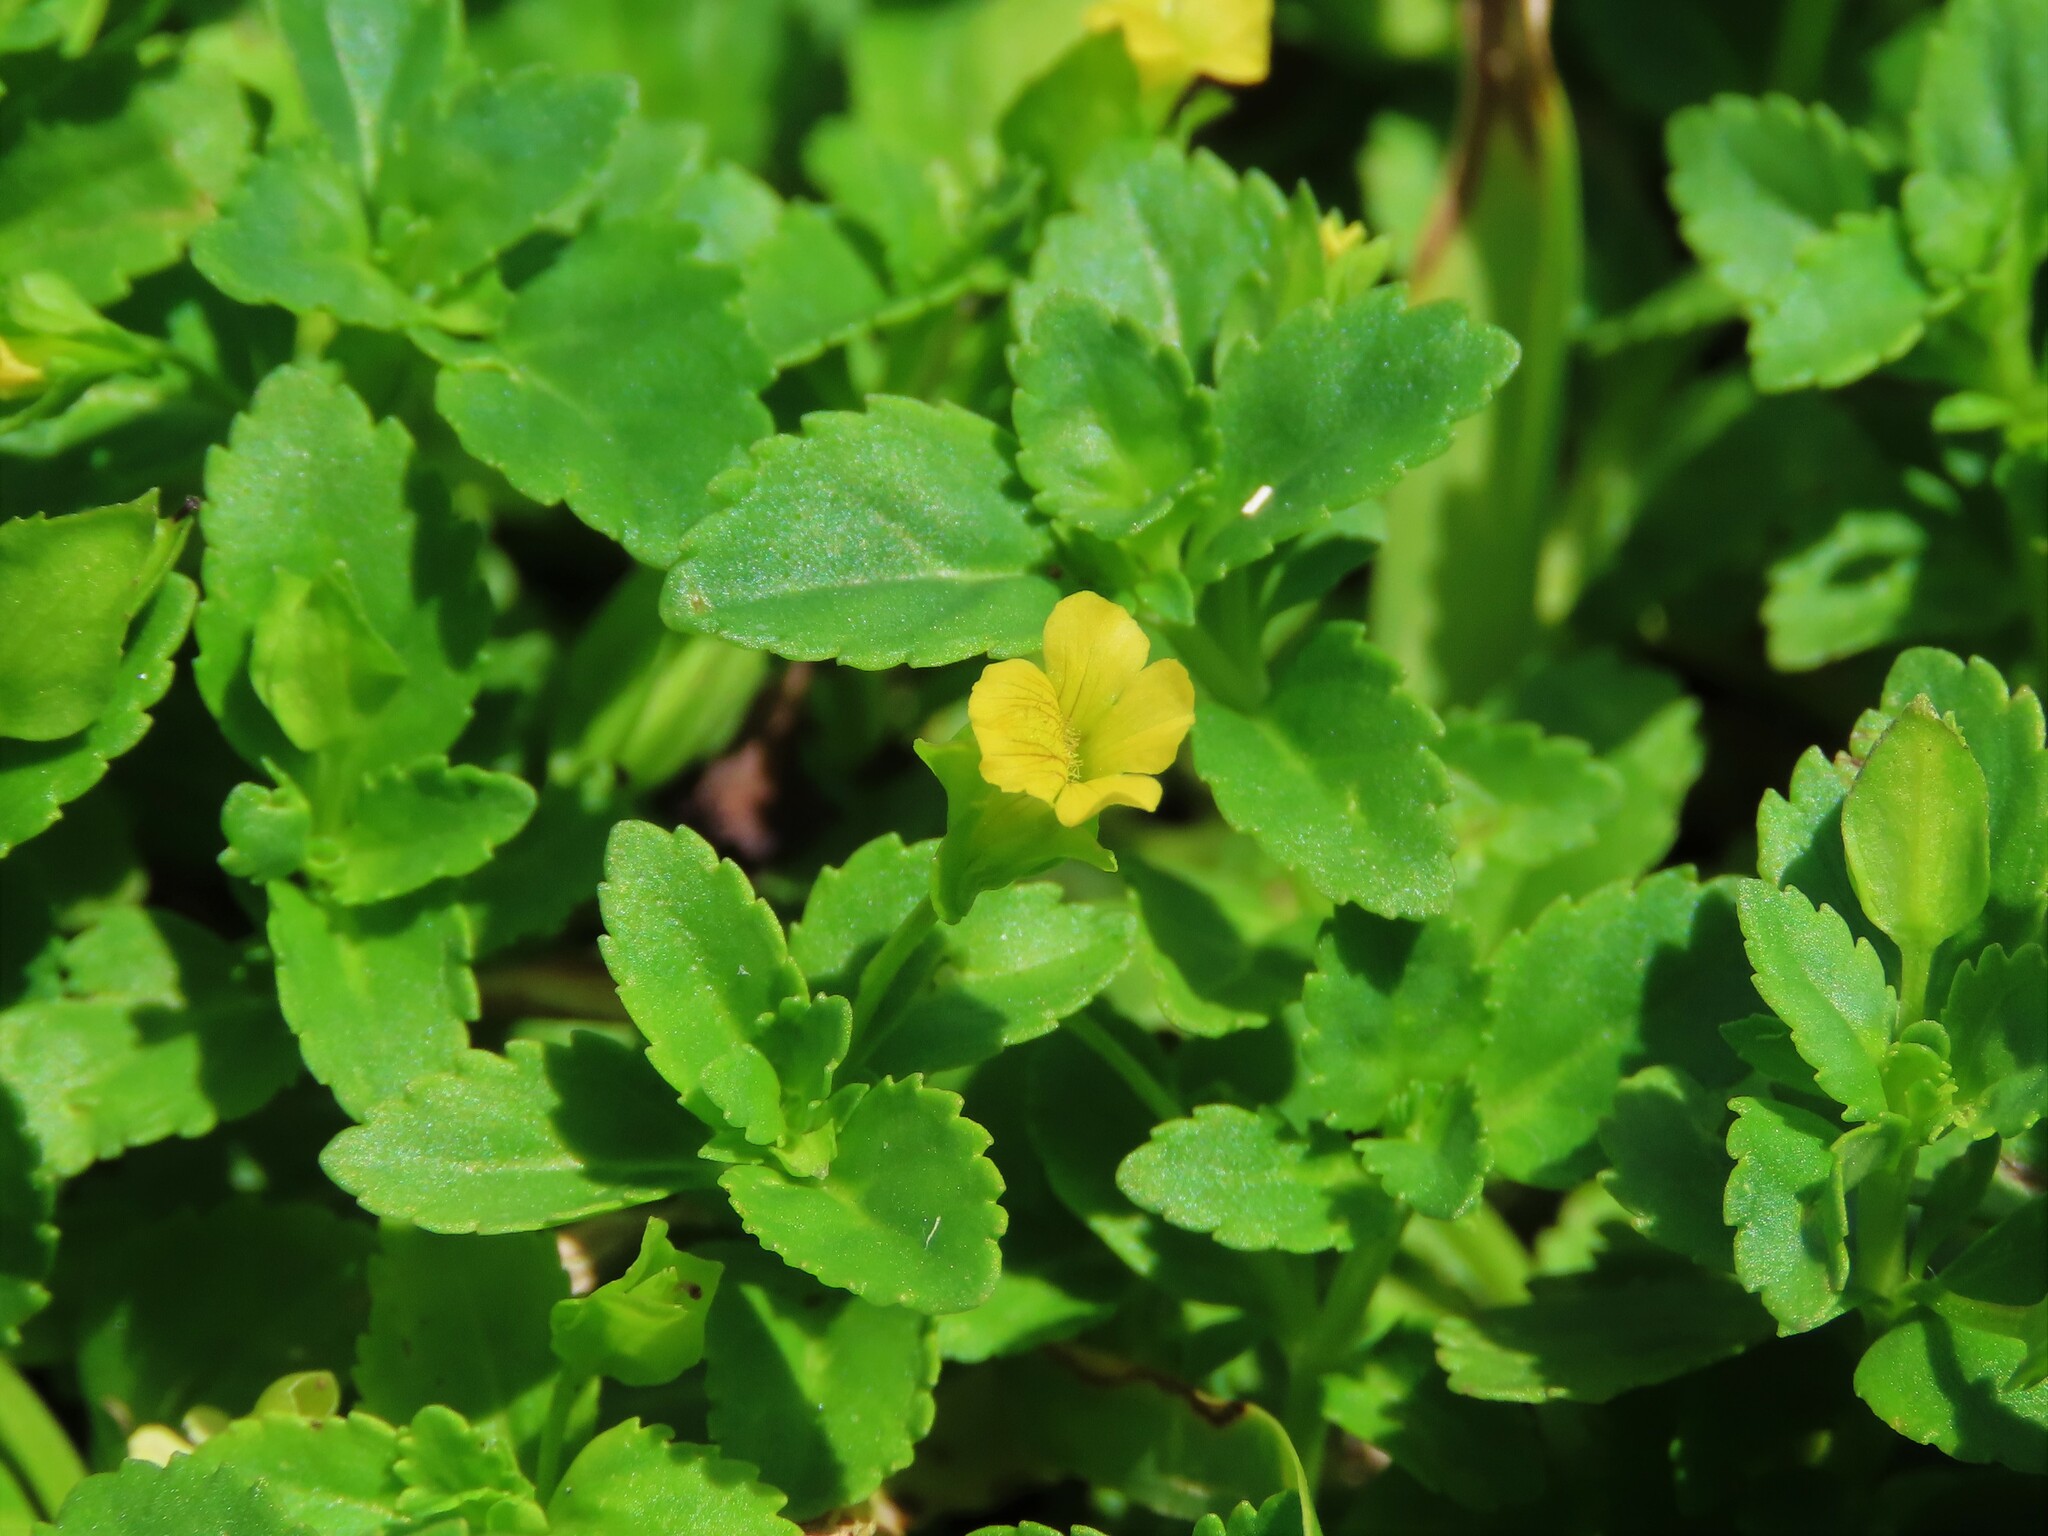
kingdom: Plantae
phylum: Tracheophyta
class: Magnoliopsida
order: Lamiales
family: Plantaginaceae
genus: Mecardonia
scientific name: Mecardonia procumbens
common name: Baby jump-up
